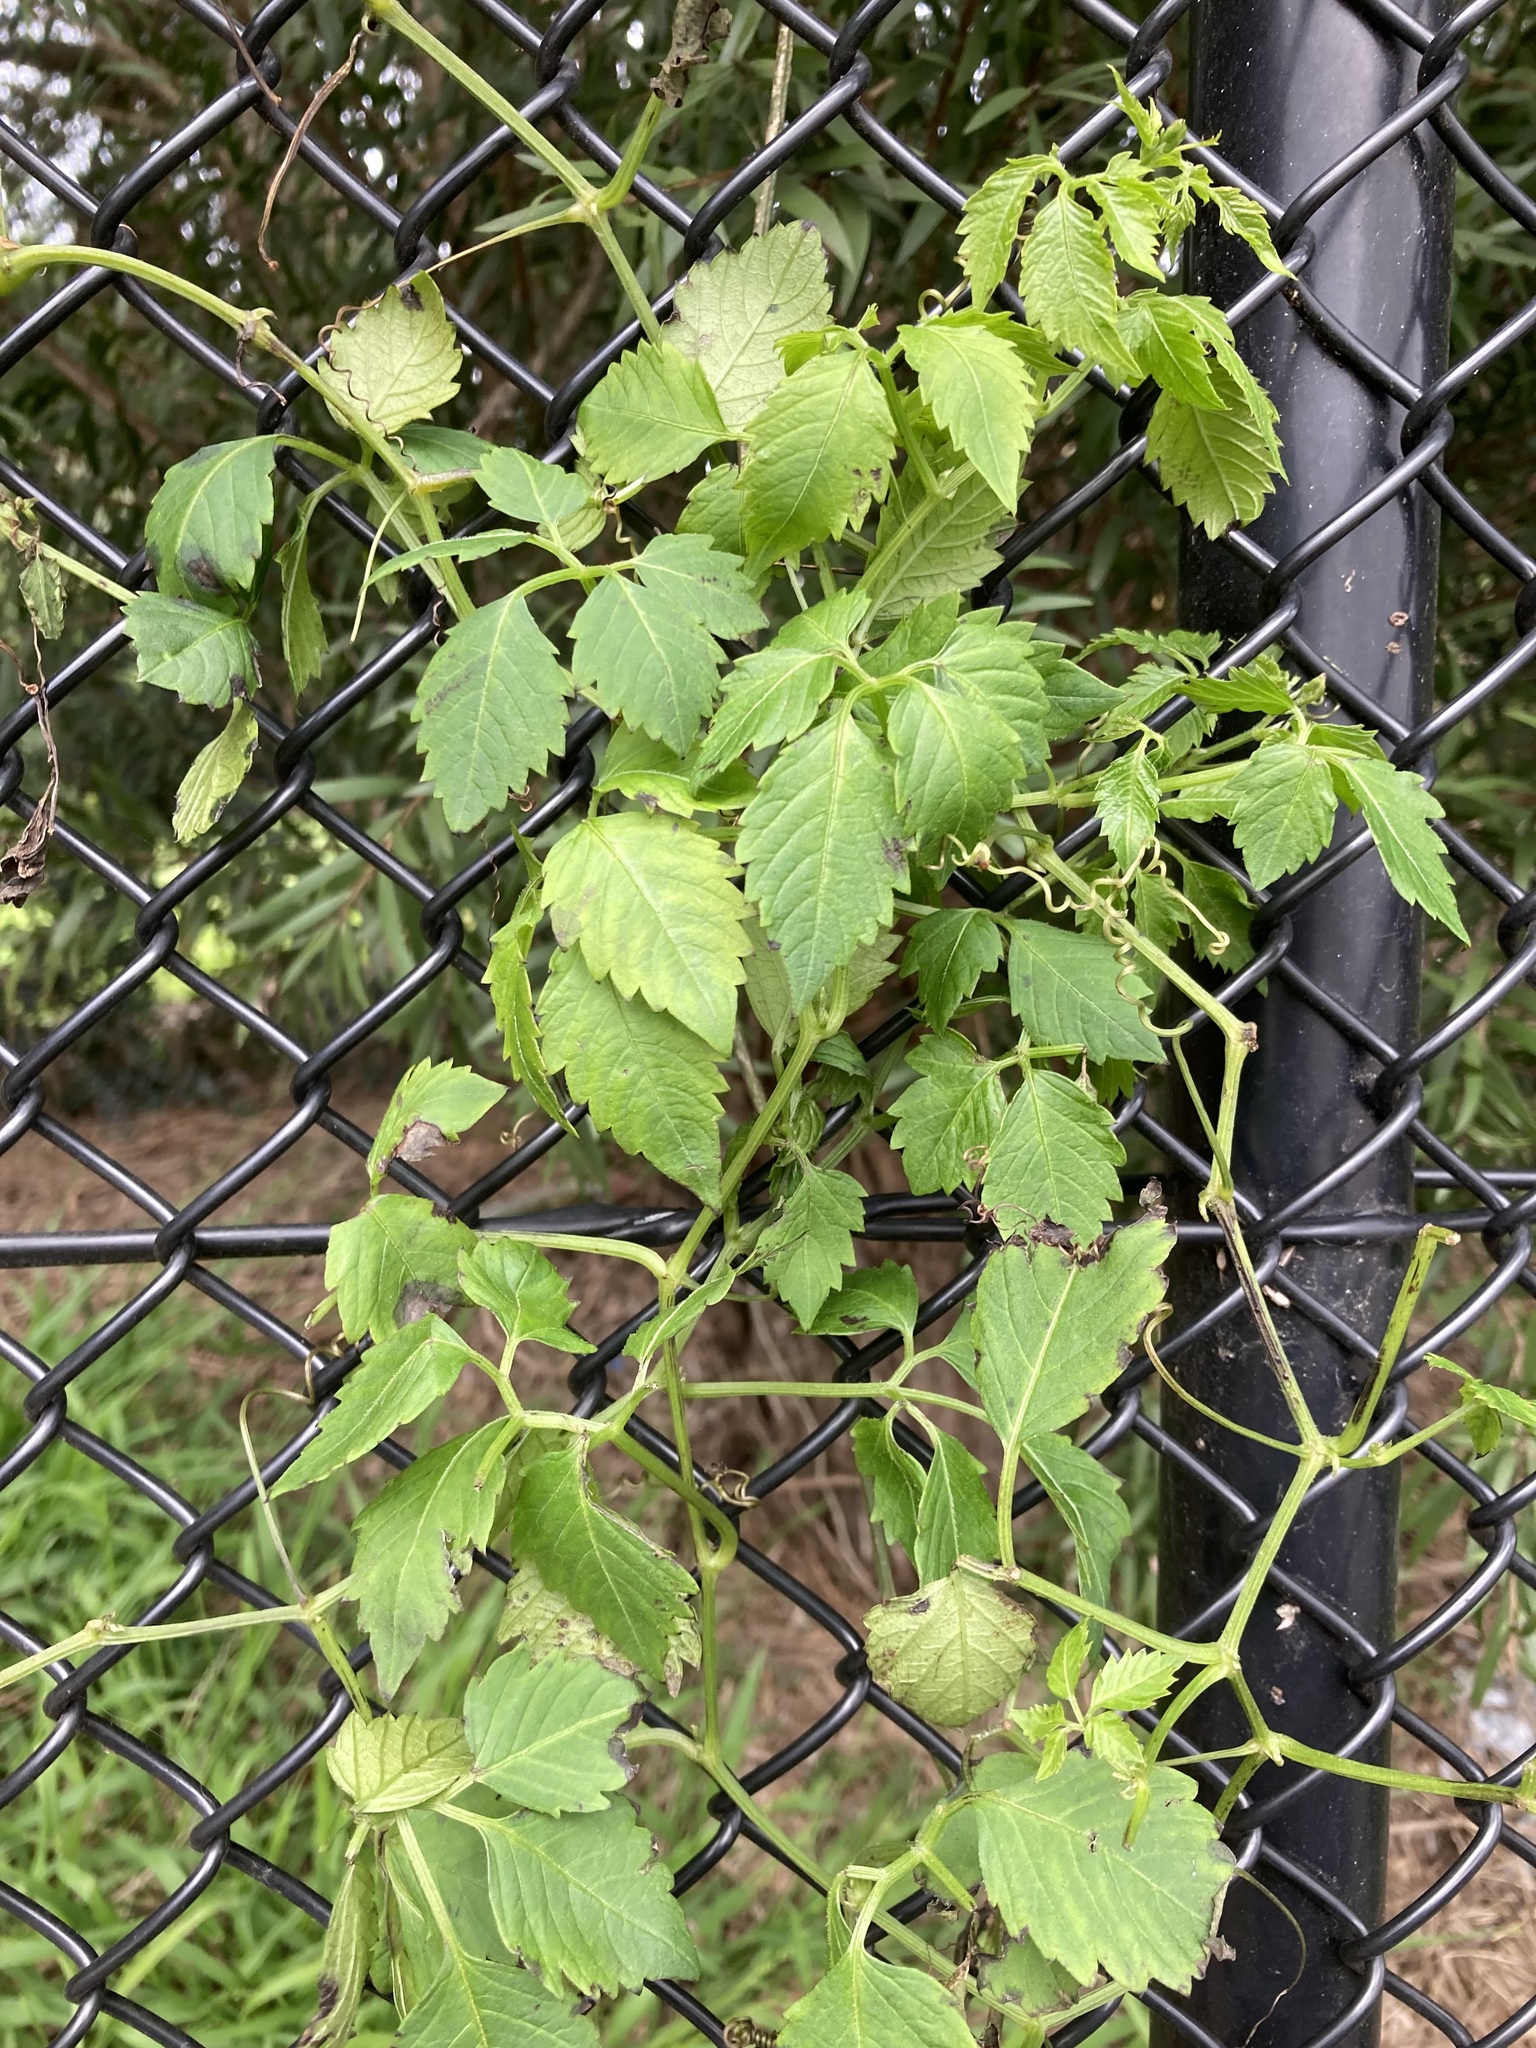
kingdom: Plantae
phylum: Tracheophyta
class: Magnoliopsida
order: Vitales
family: Vitaceae
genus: Causonis
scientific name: Causonis clematidea
